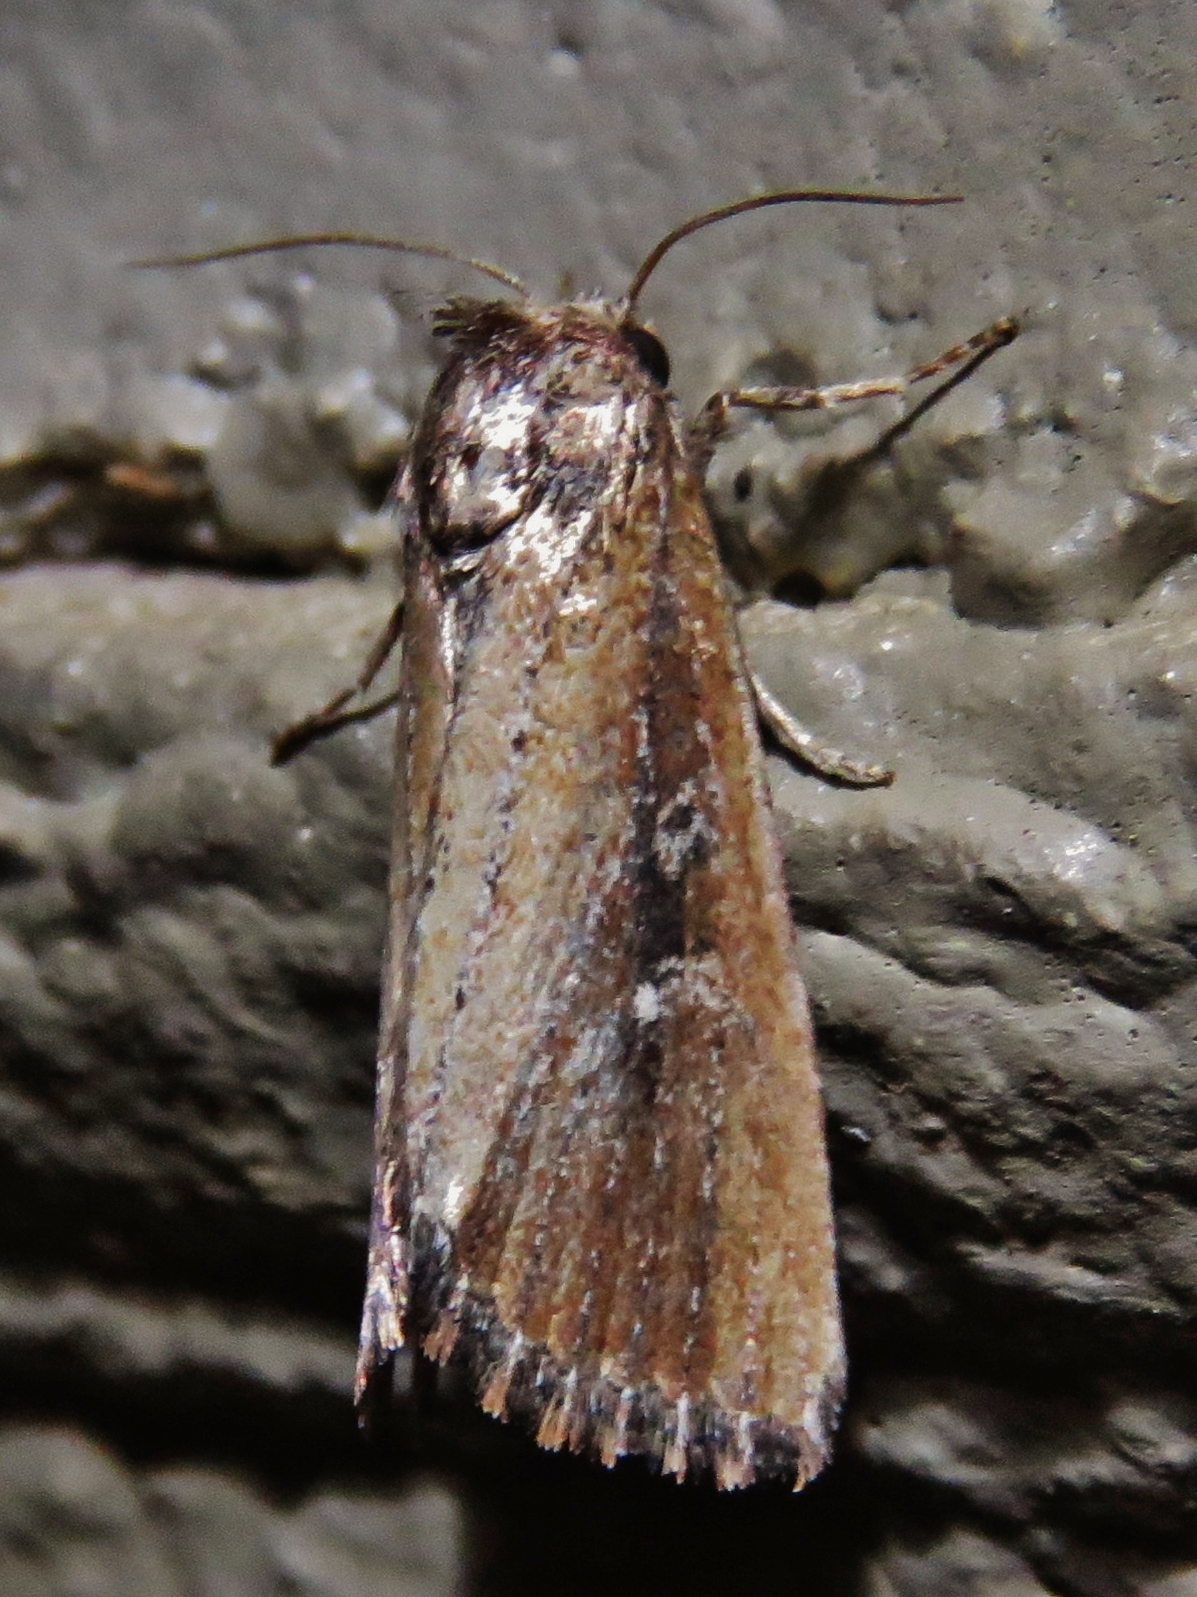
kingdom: Animalia
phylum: Arthropoda
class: Insecta
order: Lepidoptera
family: Noctuidae
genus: Condica
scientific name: Condica videns
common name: White-dotted groundling
